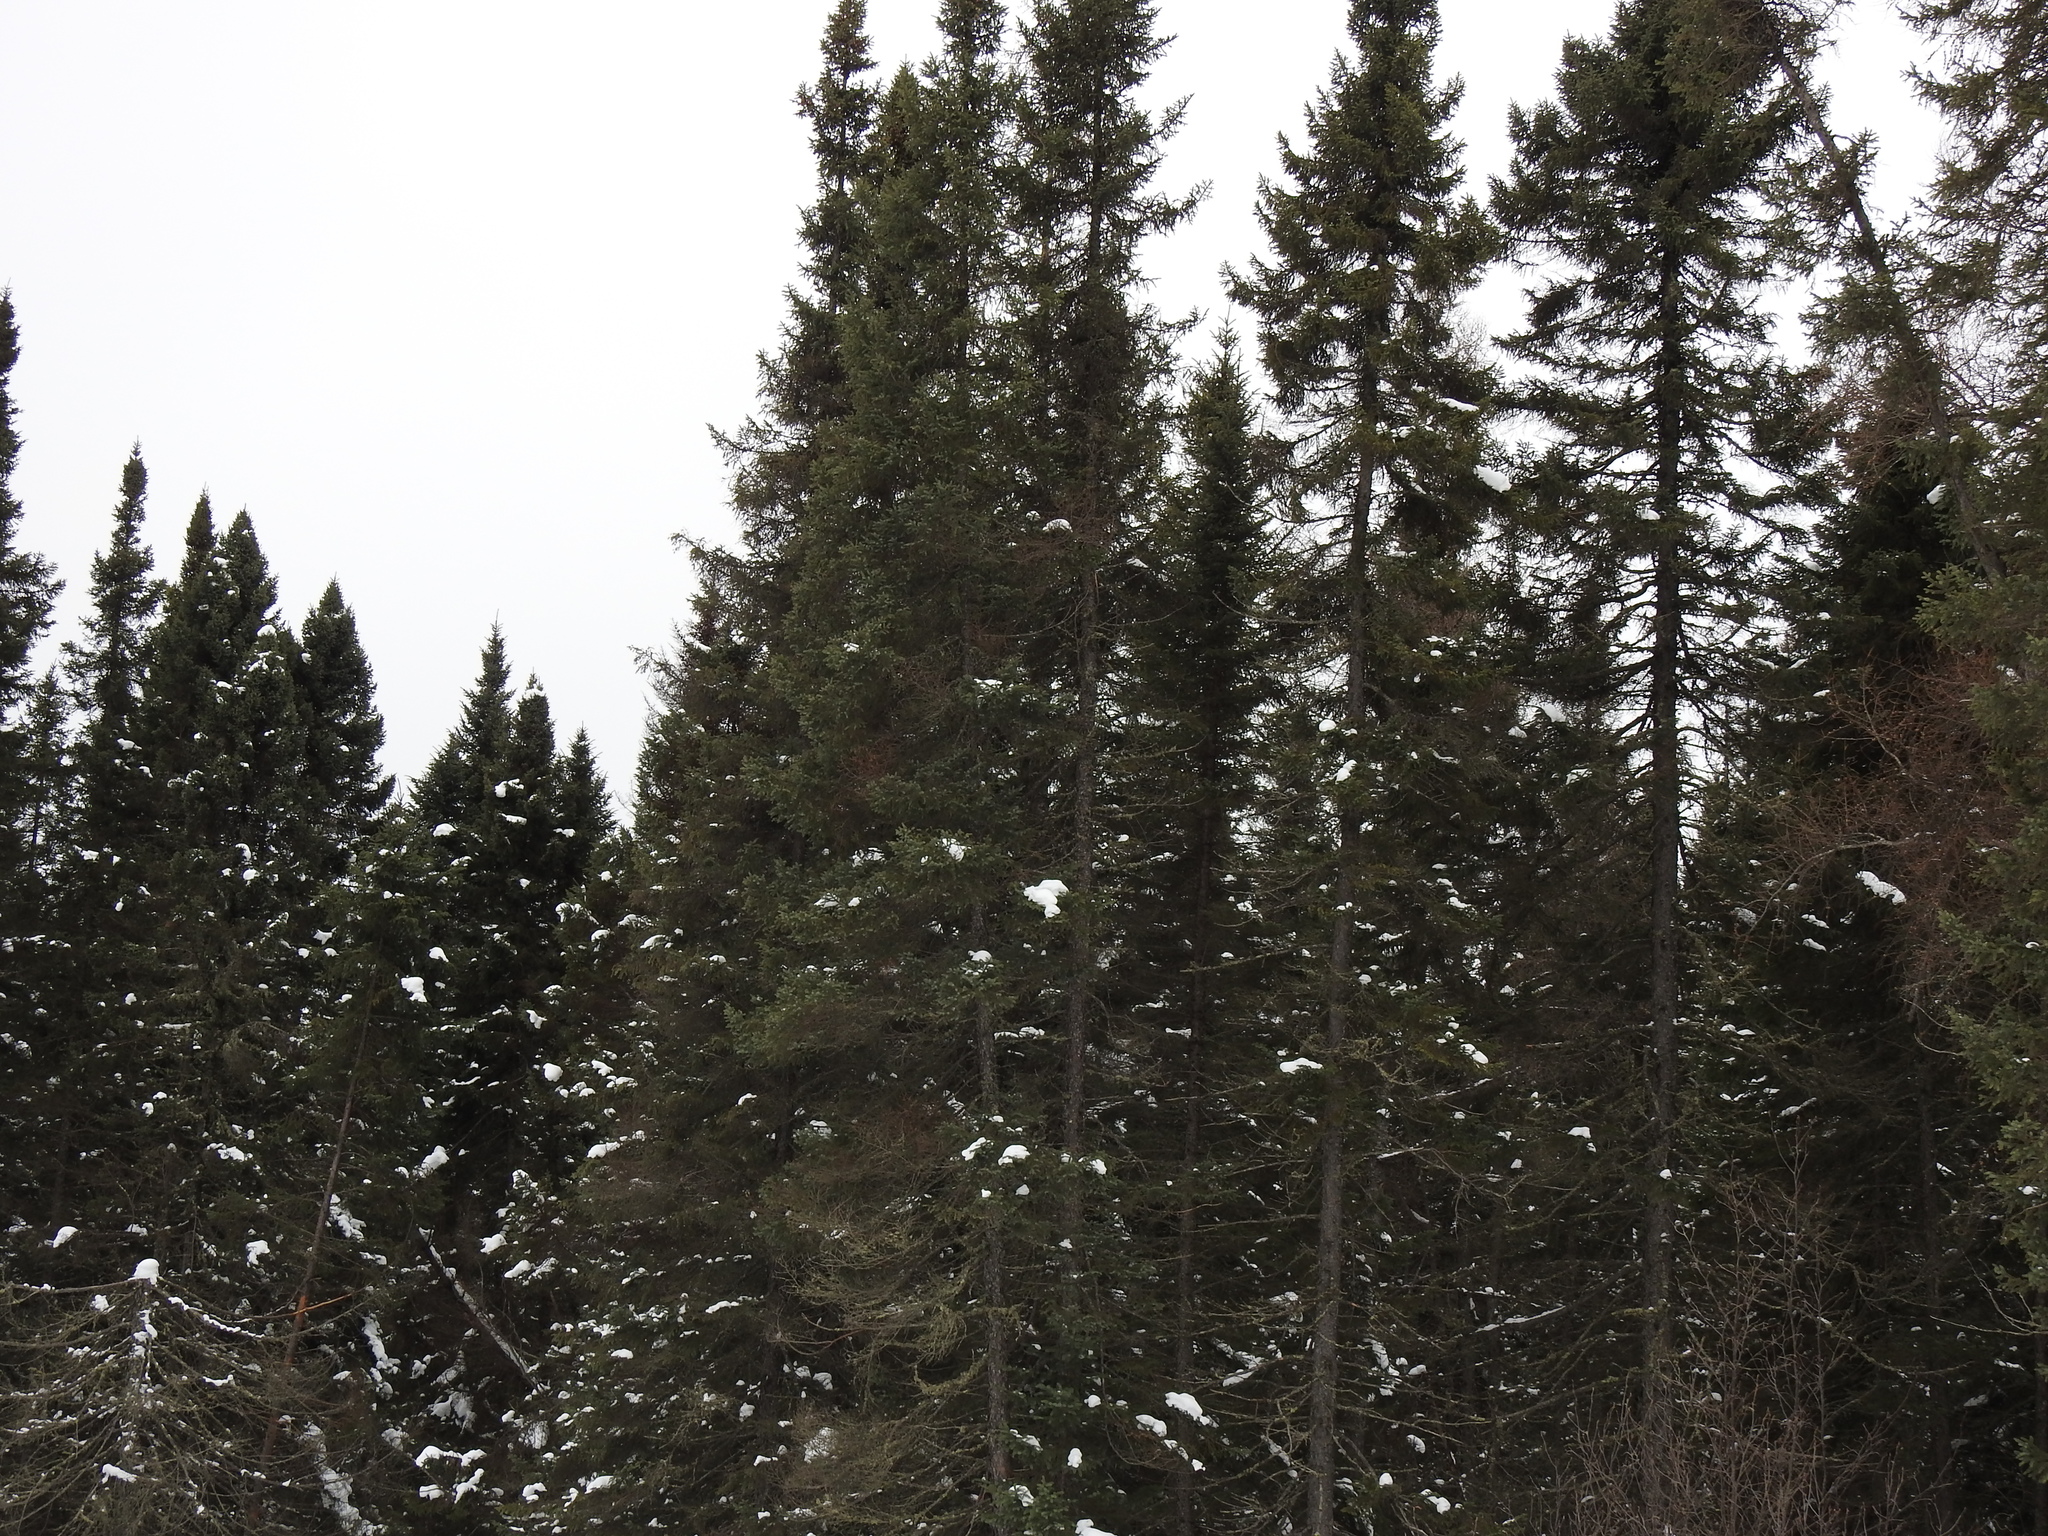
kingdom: Plantae
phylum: Tracheophyta
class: Pinopsida
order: Pinales
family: Pinaceae
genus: Picea
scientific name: Picea mariana
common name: Black spruce
